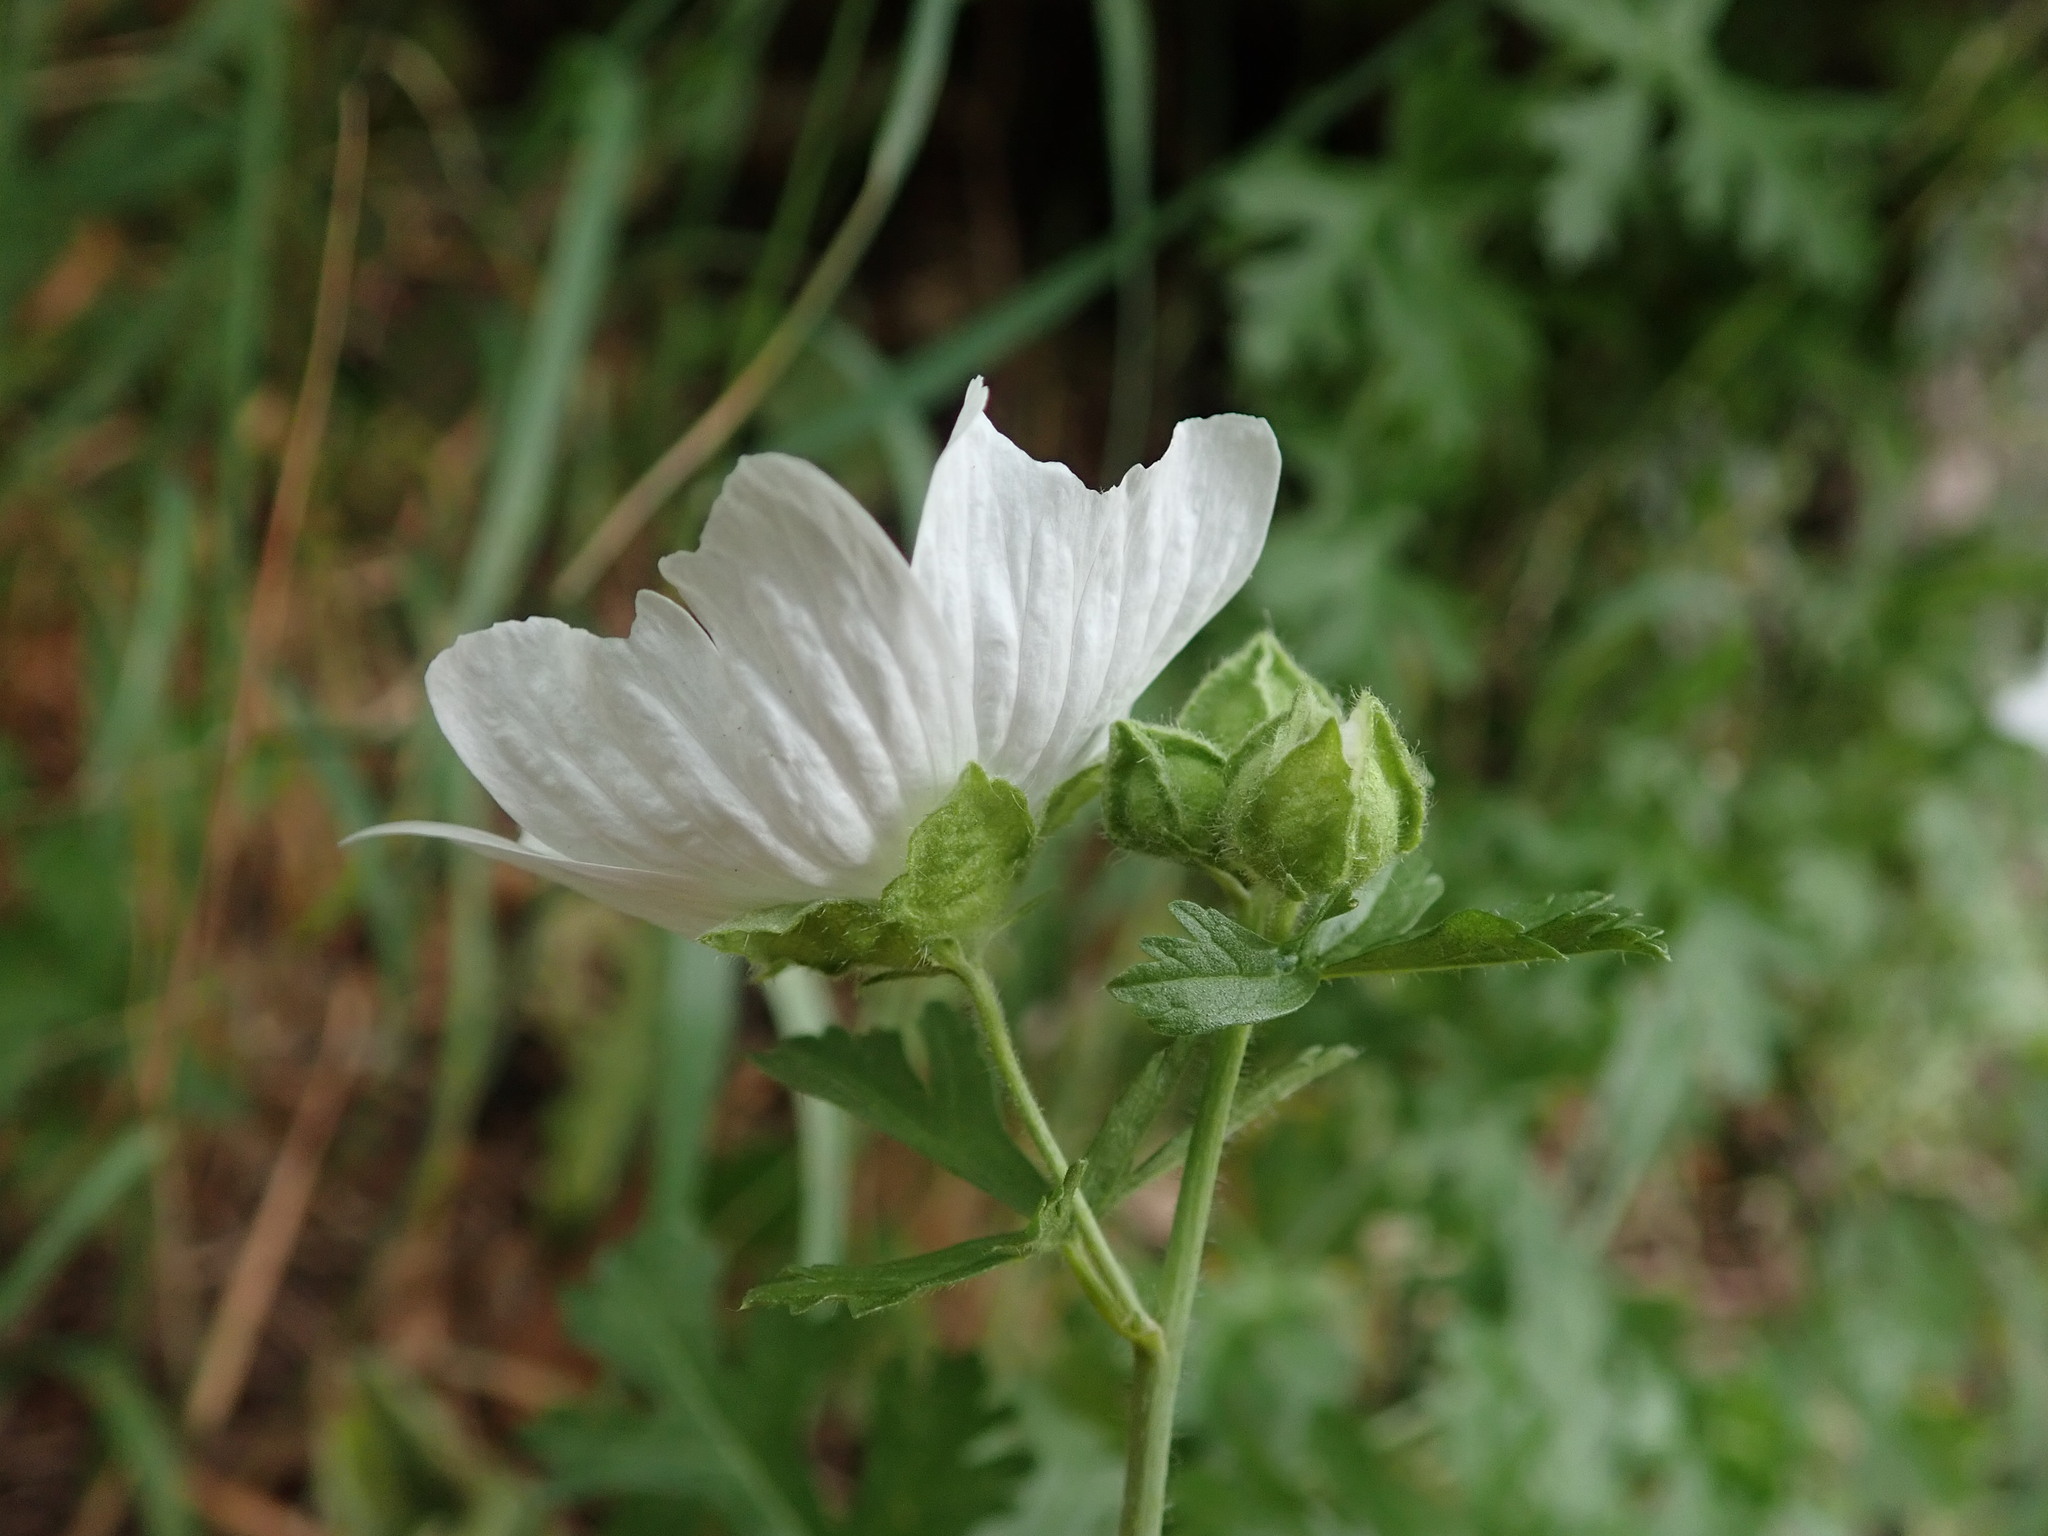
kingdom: Plantae
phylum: Tracheophyta
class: Magnoliopsida
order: Malvales
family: Malvaceae
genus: Malva
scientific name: Malva moschata
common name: Musk mallow
